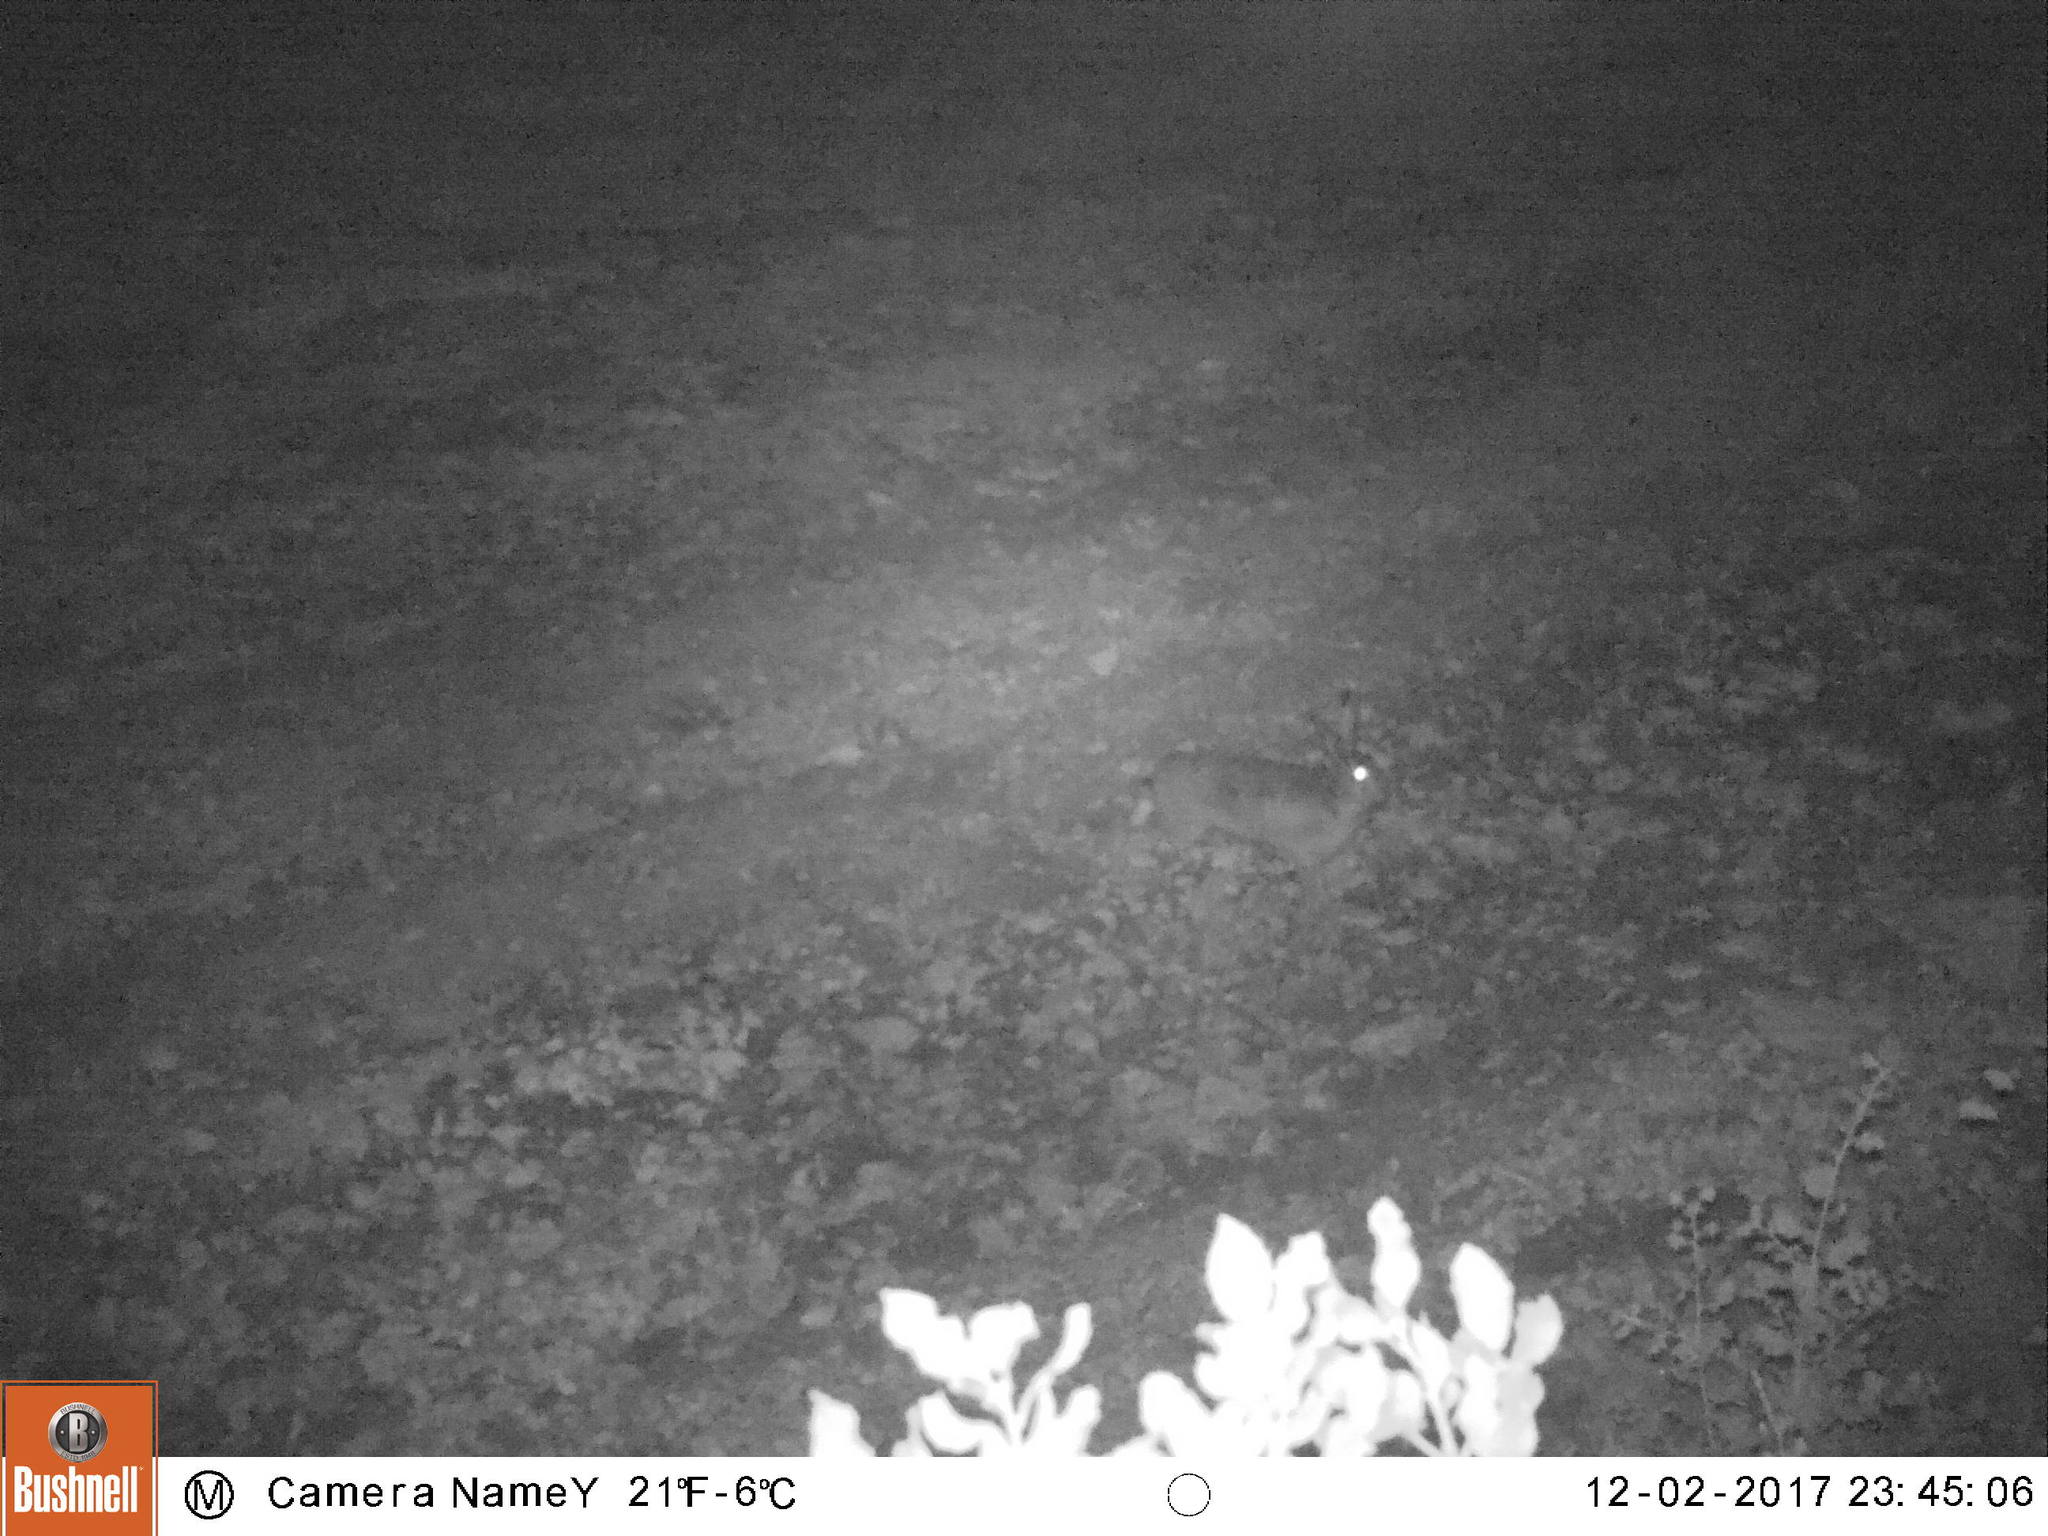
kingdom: Animalia
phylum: Chordata
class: Mammalia
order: Lagomorpha
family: Leporidae
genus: Lepus
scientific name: Lepus europaeus
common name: European hare
